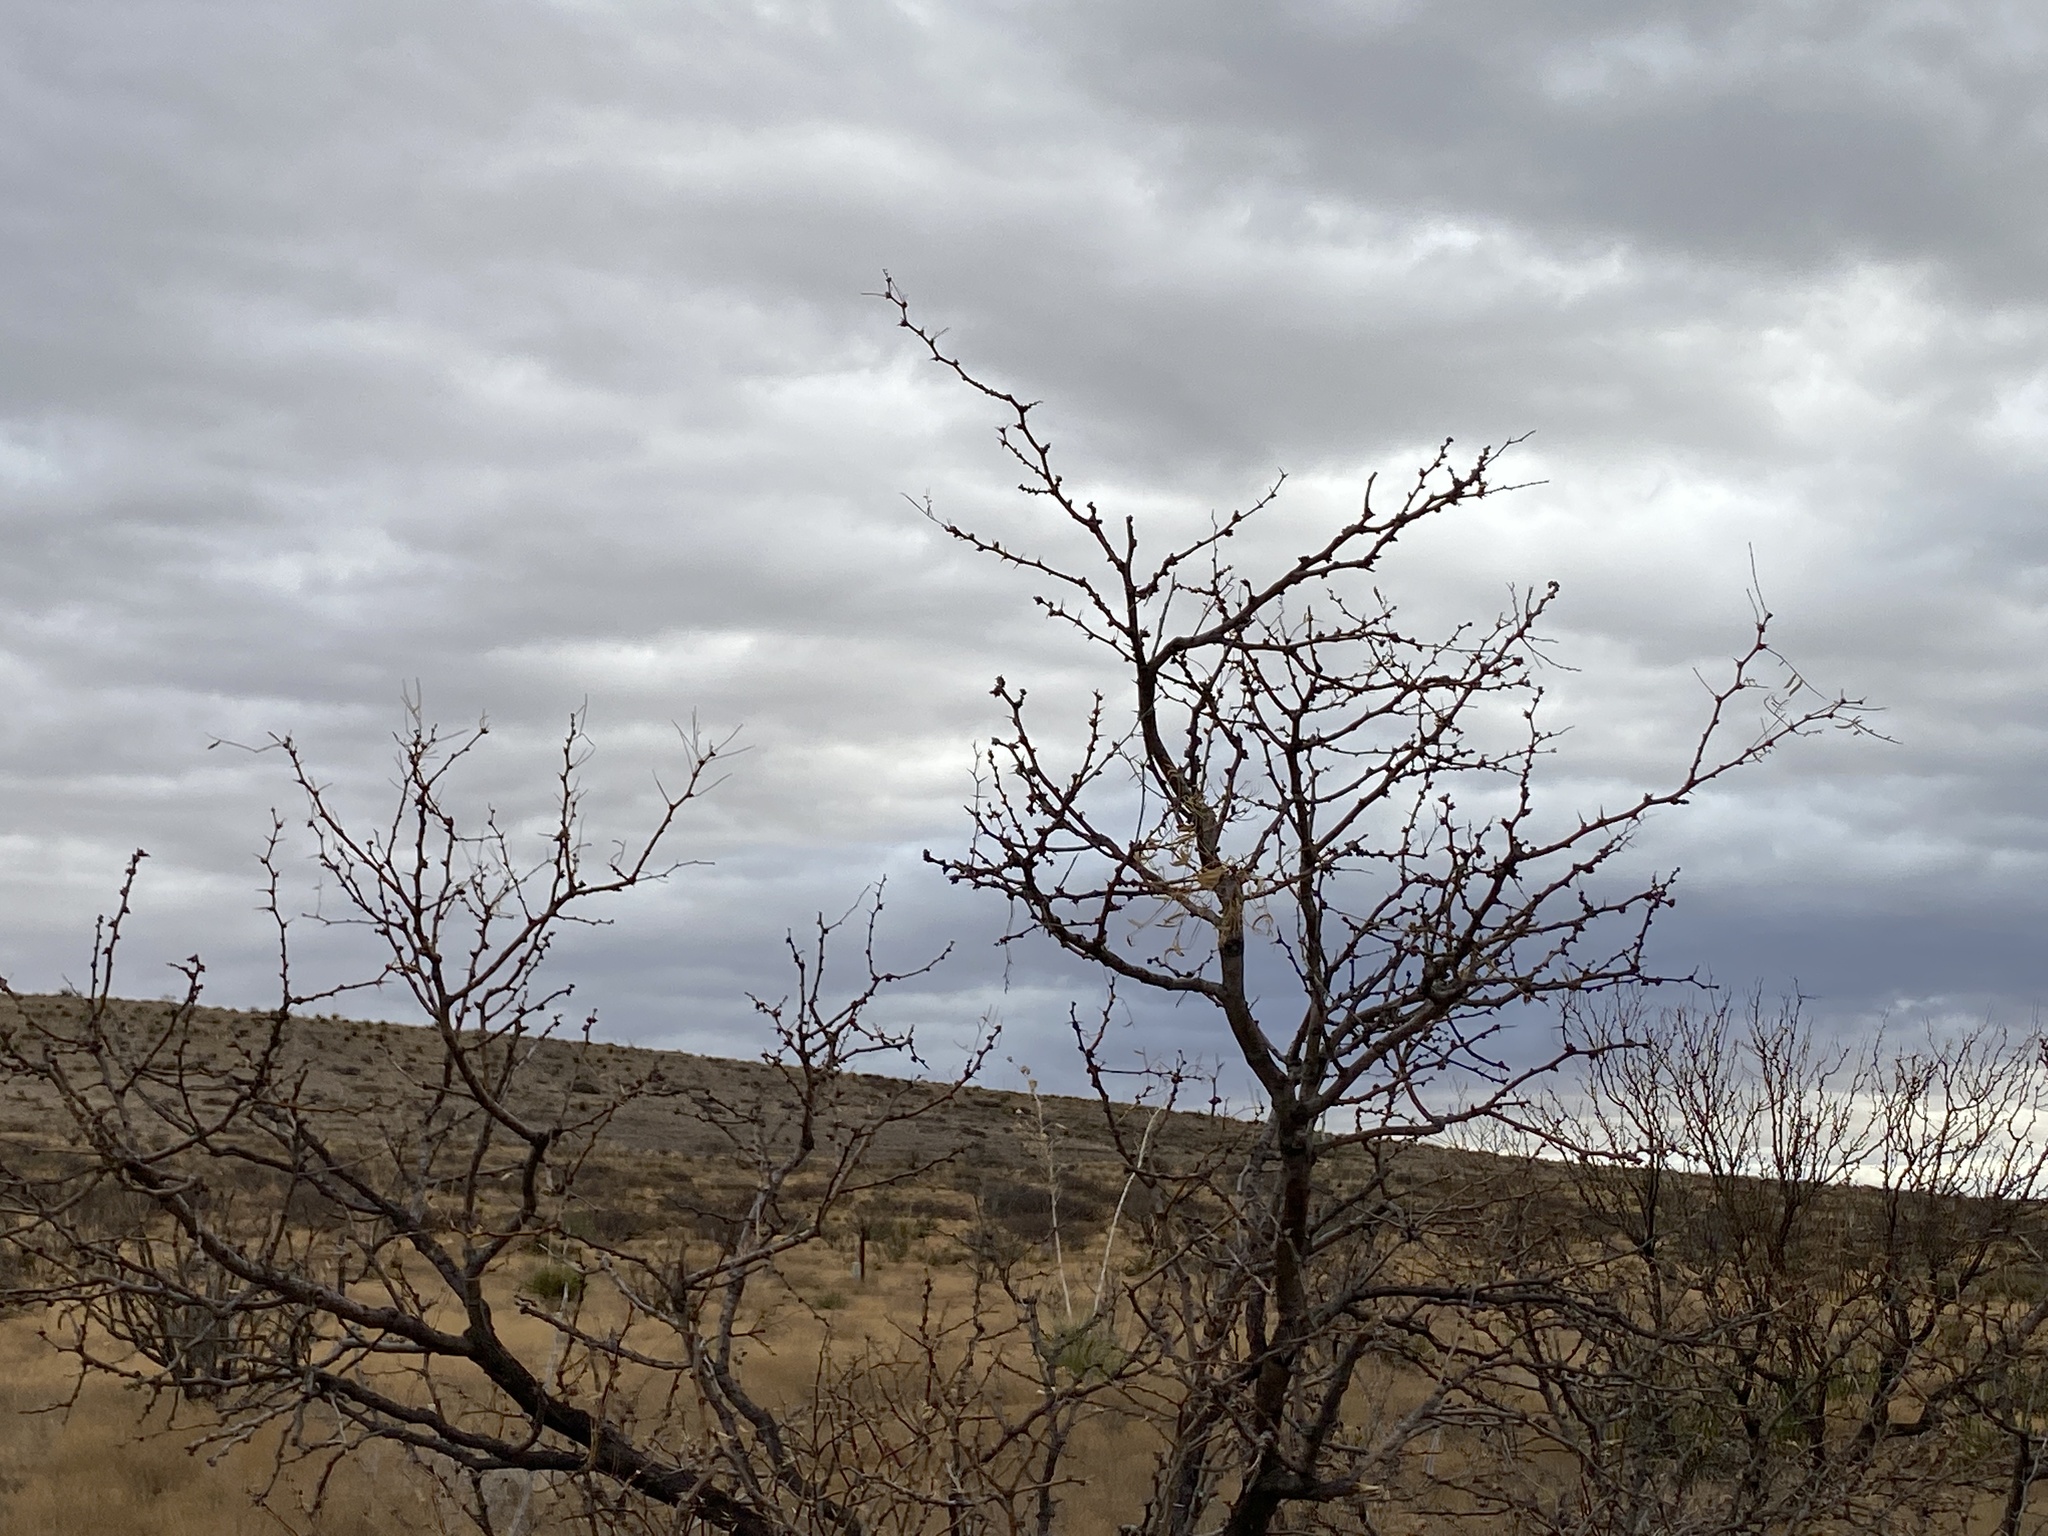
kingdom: Plantae
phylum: Tracheophyta
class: Magnoliopsida
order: Fabales
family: Fabaceae
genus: Prosopis
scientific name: Prosopis glandulosa
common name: Honey mesquite
